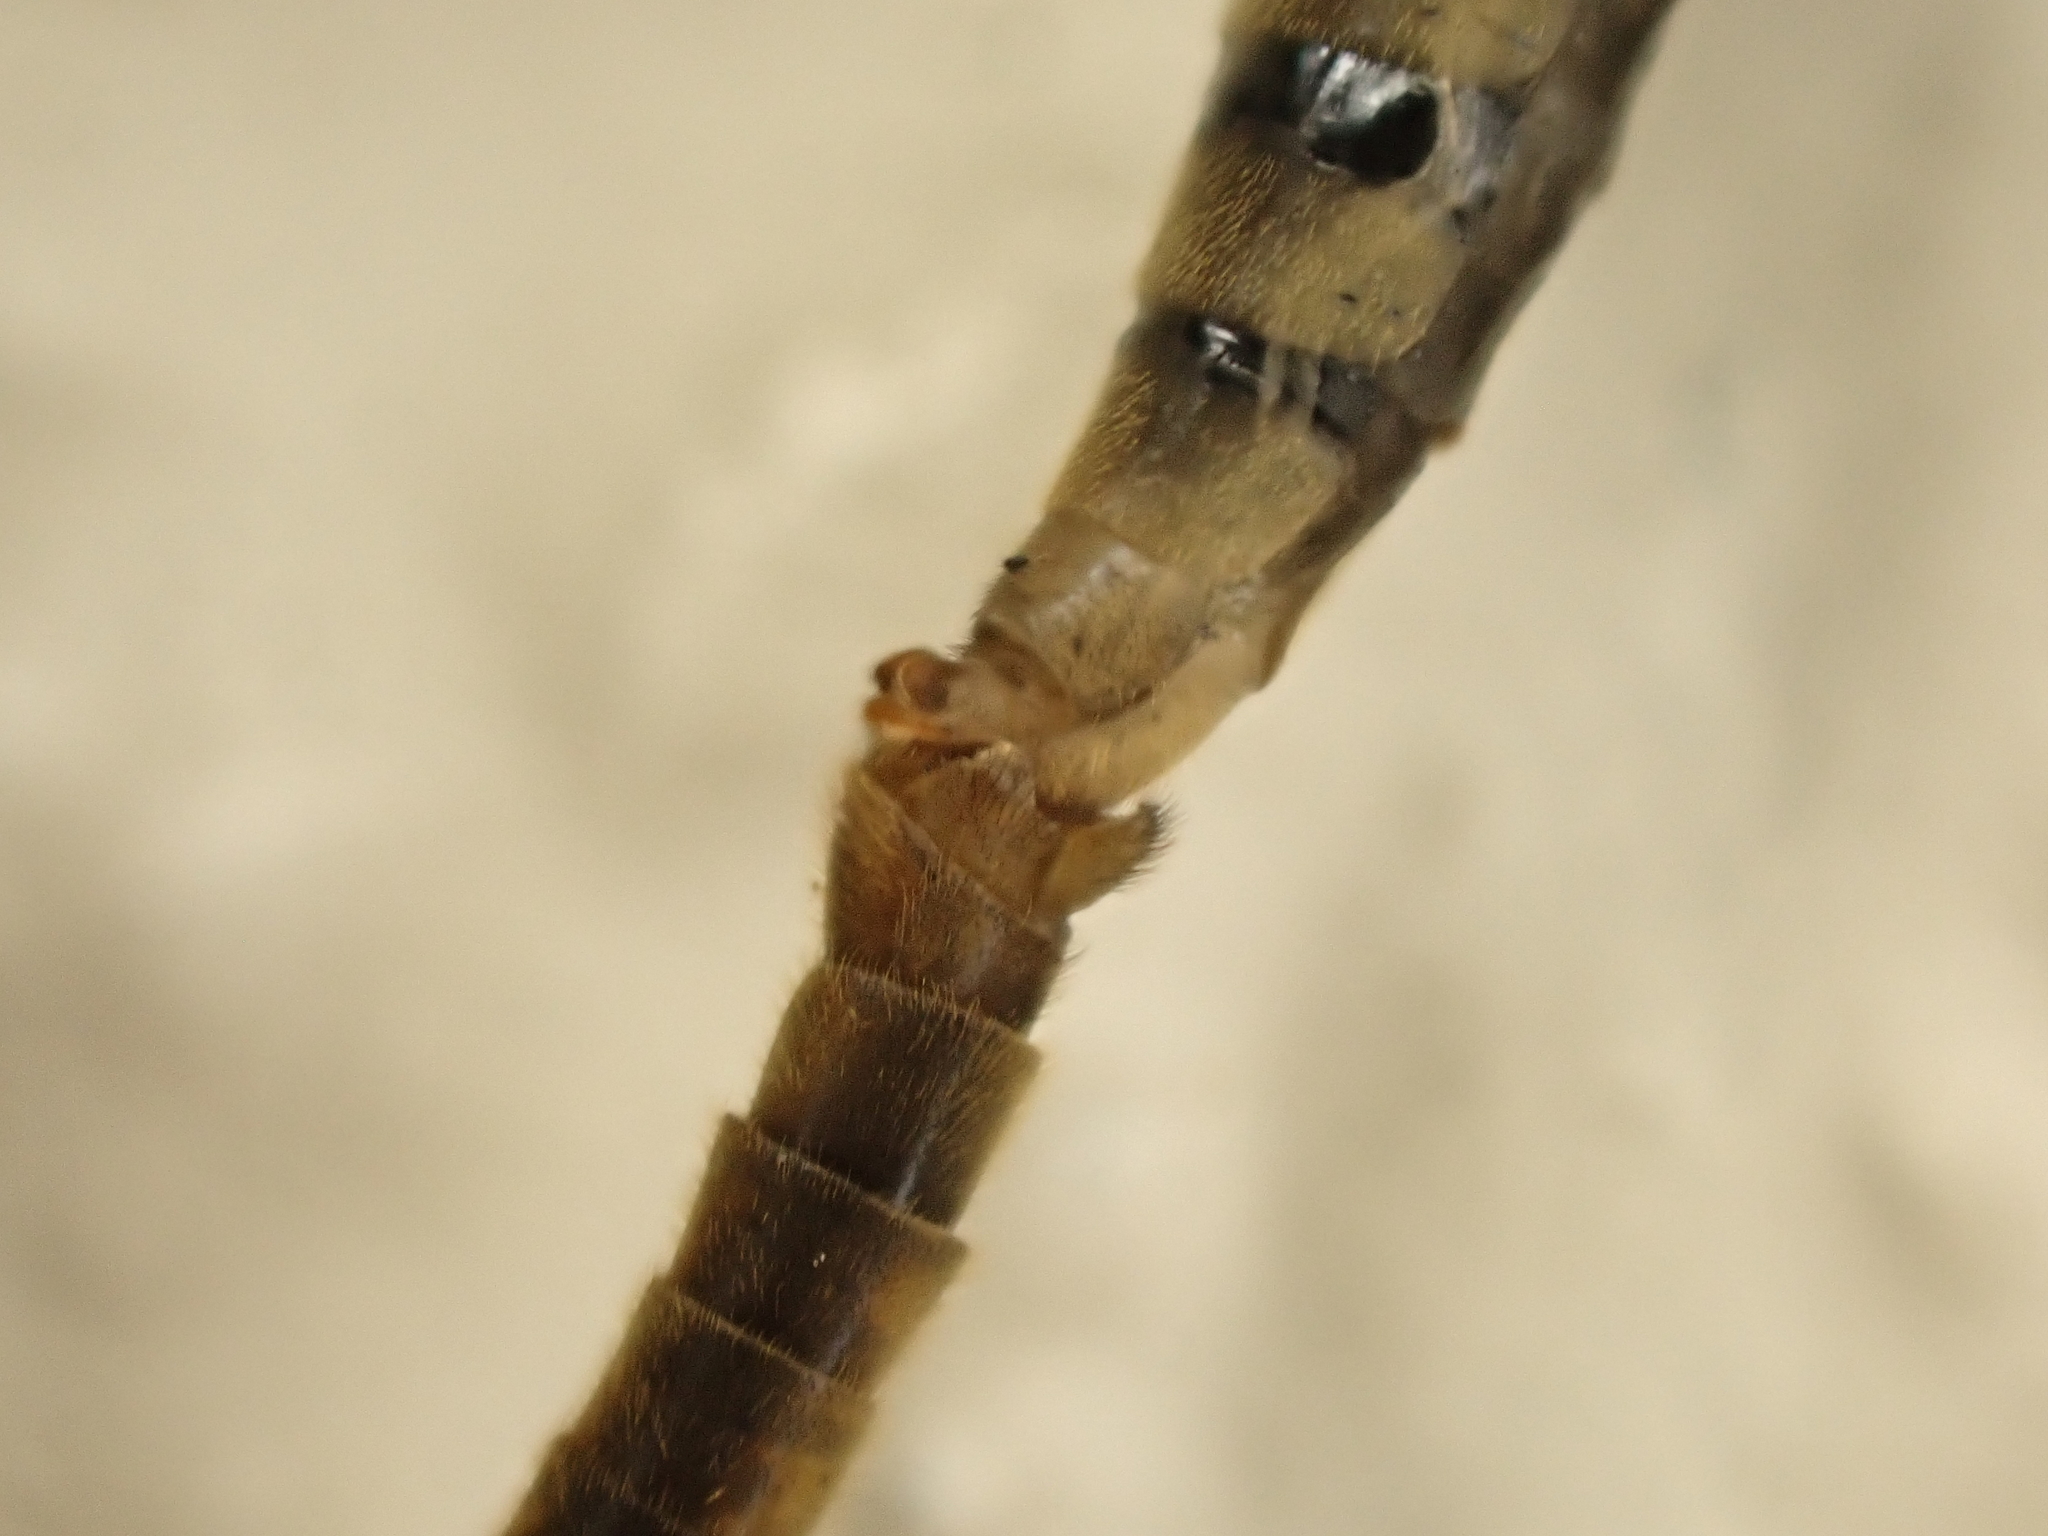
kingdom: Animalia
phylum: Arthropoda
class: Insecta
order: Diptera
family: Tipulidae
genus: Leptotarsus
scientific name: Leptotarsus
